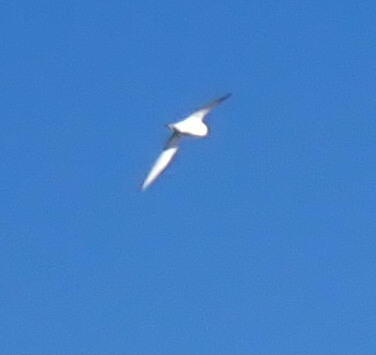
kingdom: Animalia
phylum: Chordata
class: Aves
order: Charadriiformes
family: Laridae
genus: Sterna
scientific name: Sterna forsteri
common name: Forster's tern
